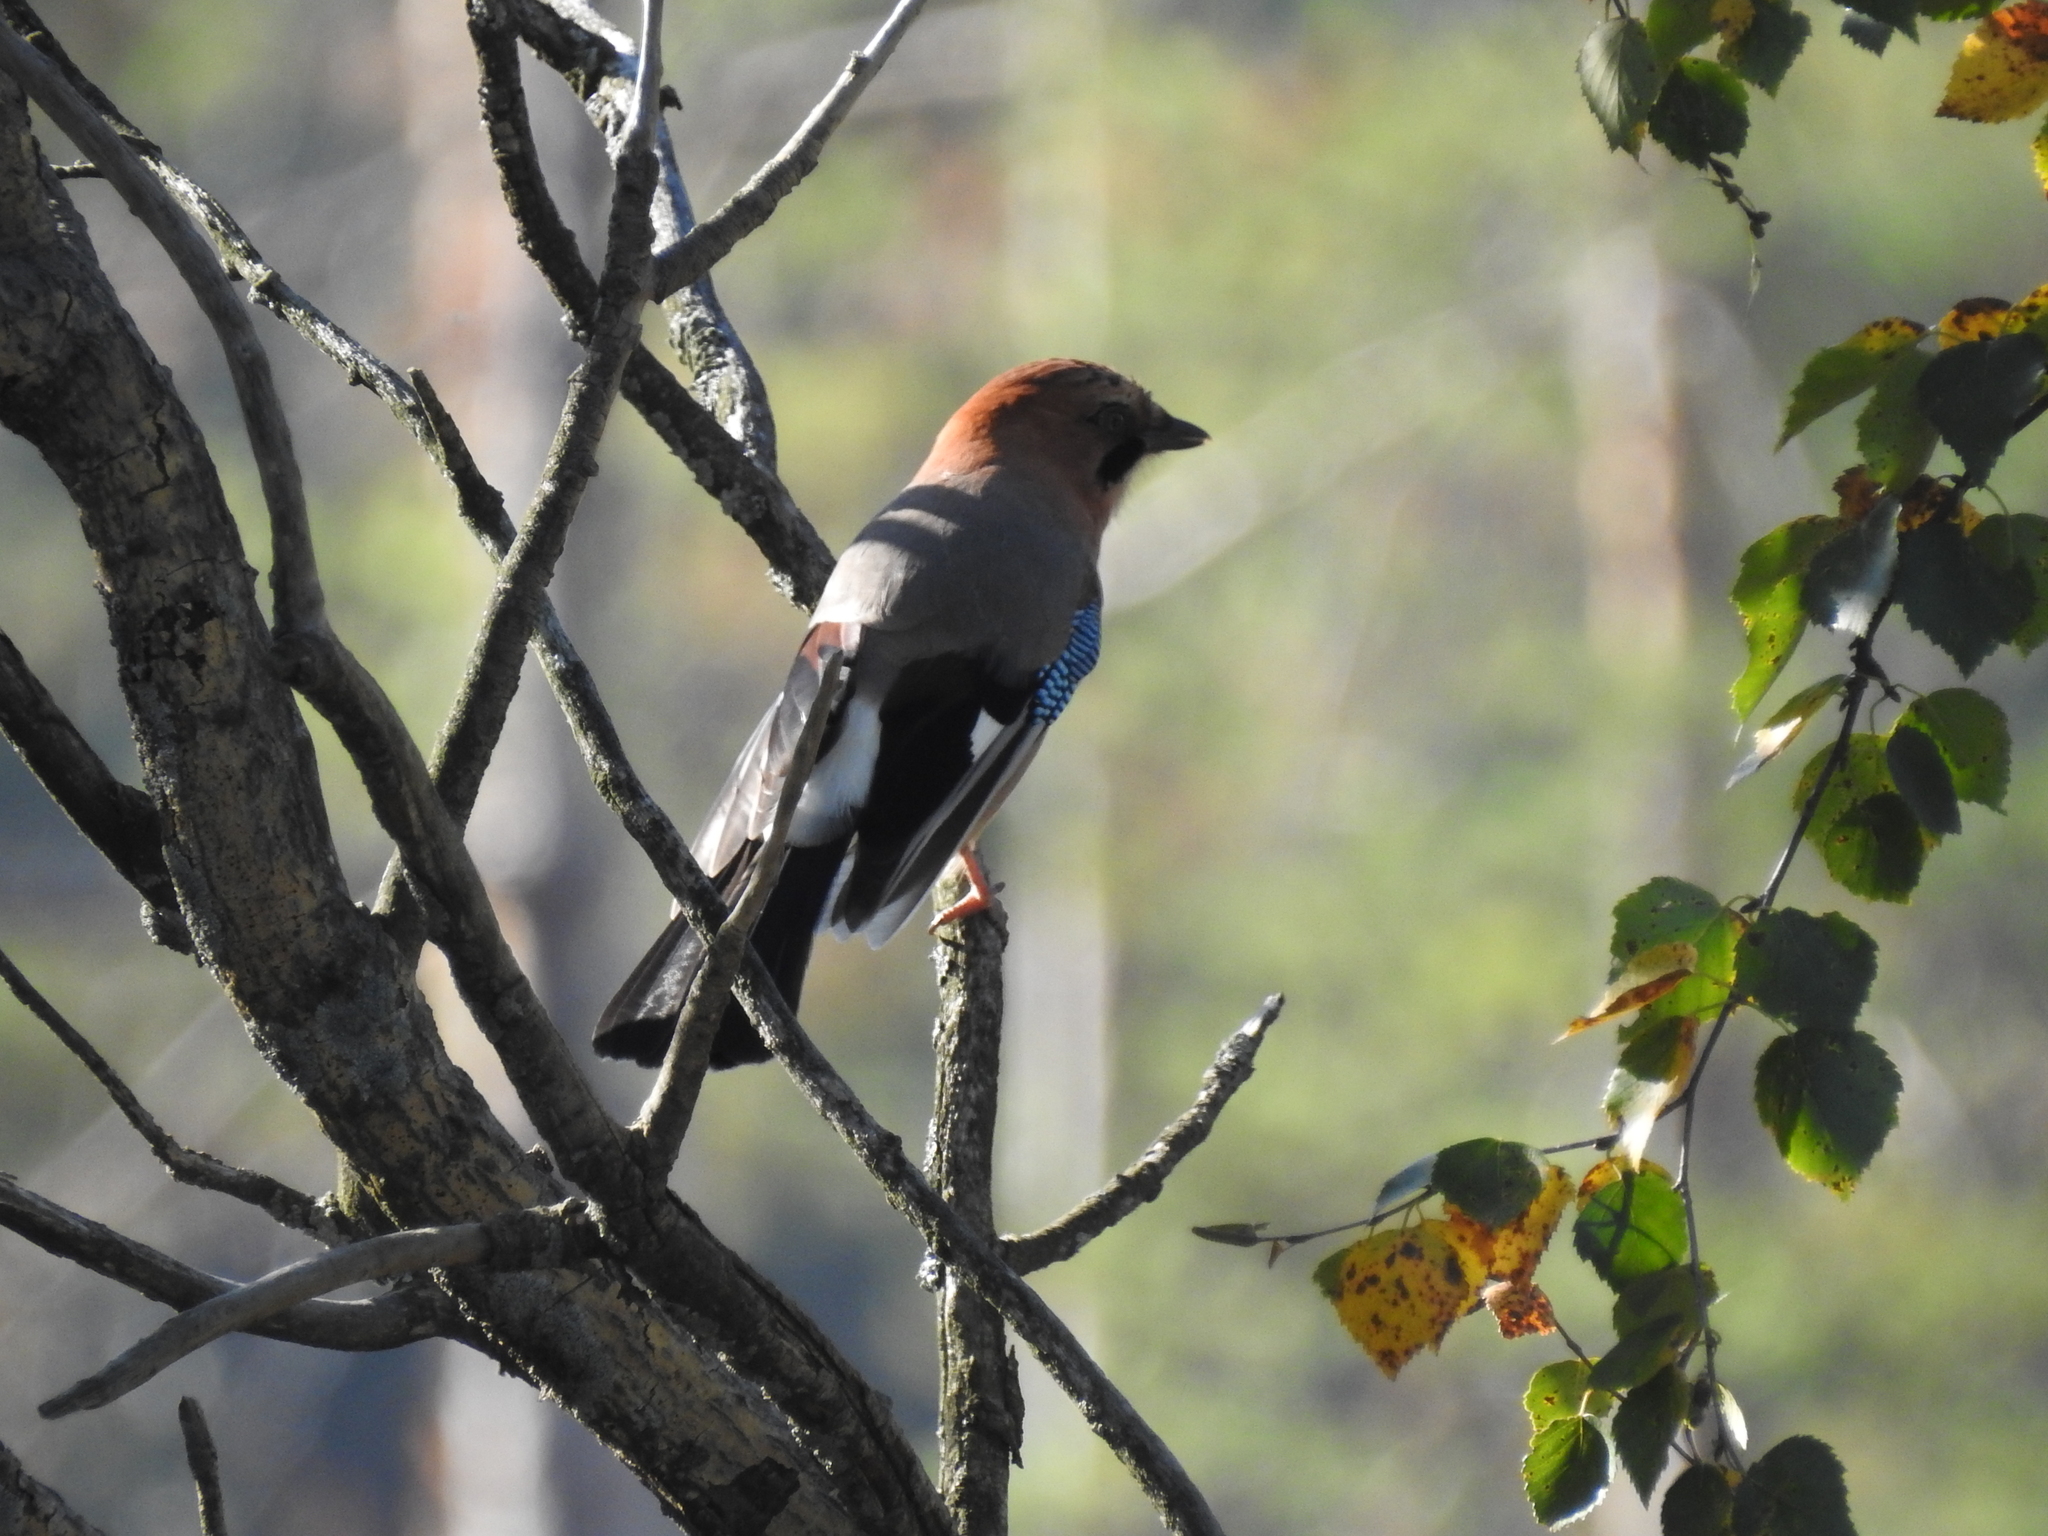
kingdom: Animalia
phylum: Chordata
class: Aves
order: Passeriformes
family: Corvidae
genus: Garrulus
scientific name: Garrulus glandarius
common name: Eurasian jay
